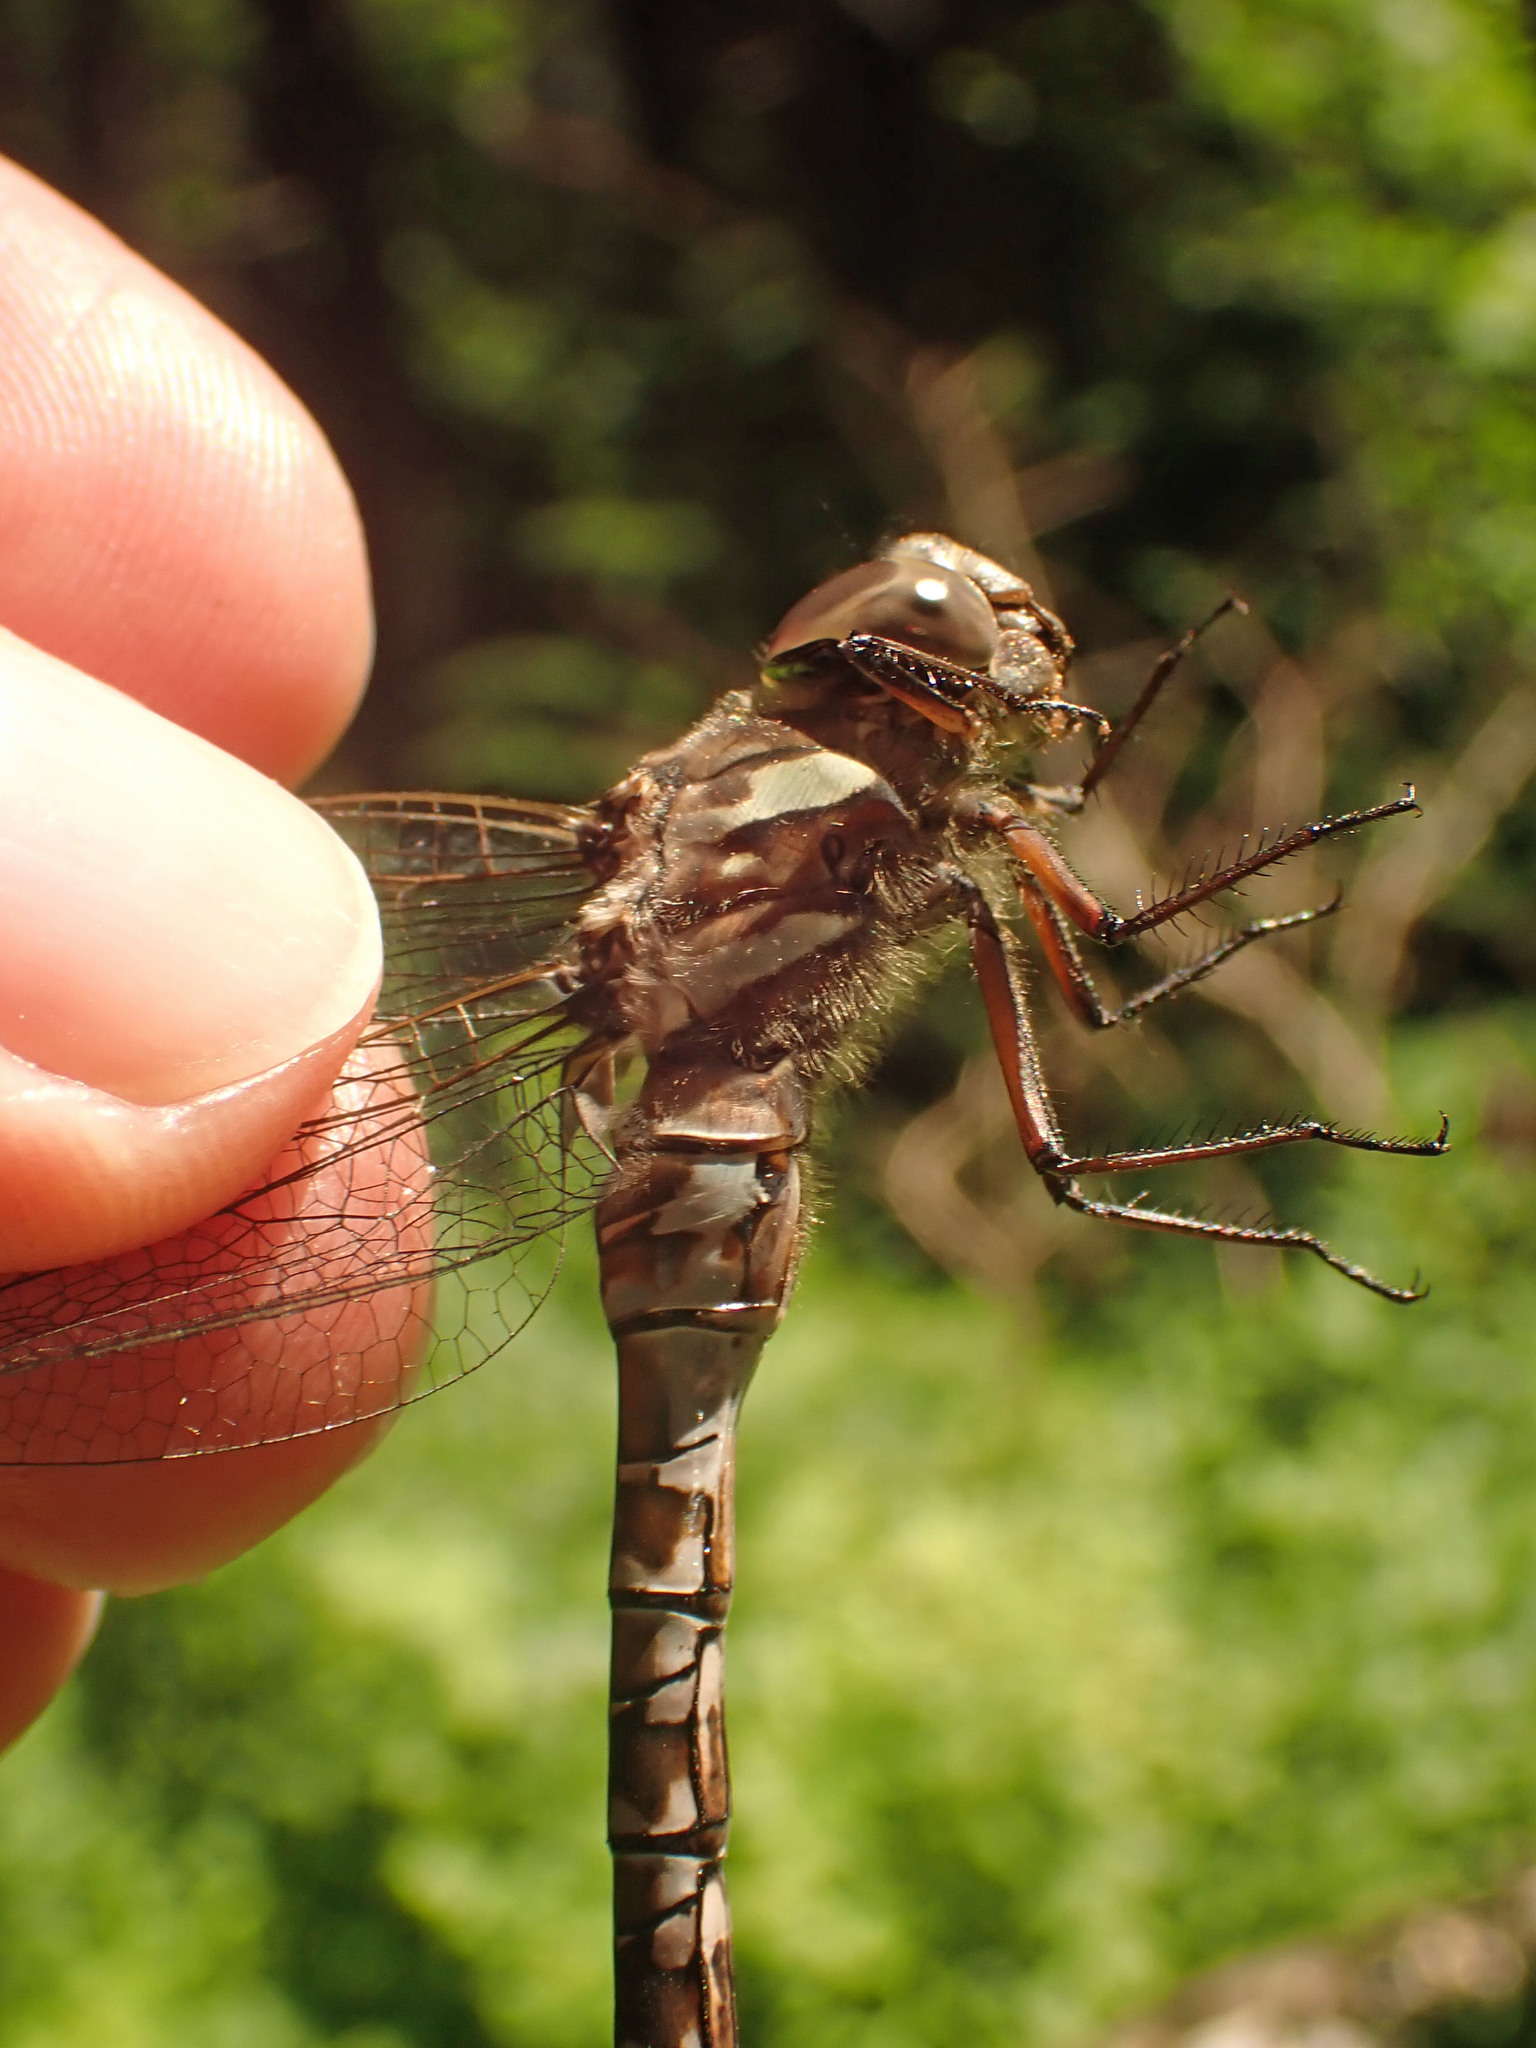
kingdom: Animalia
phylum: Arthropoda
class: Insecta
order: Odonata
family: Aeshnidae
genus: Aeshna
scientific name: Aeshna canadensis
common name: Canada darner
